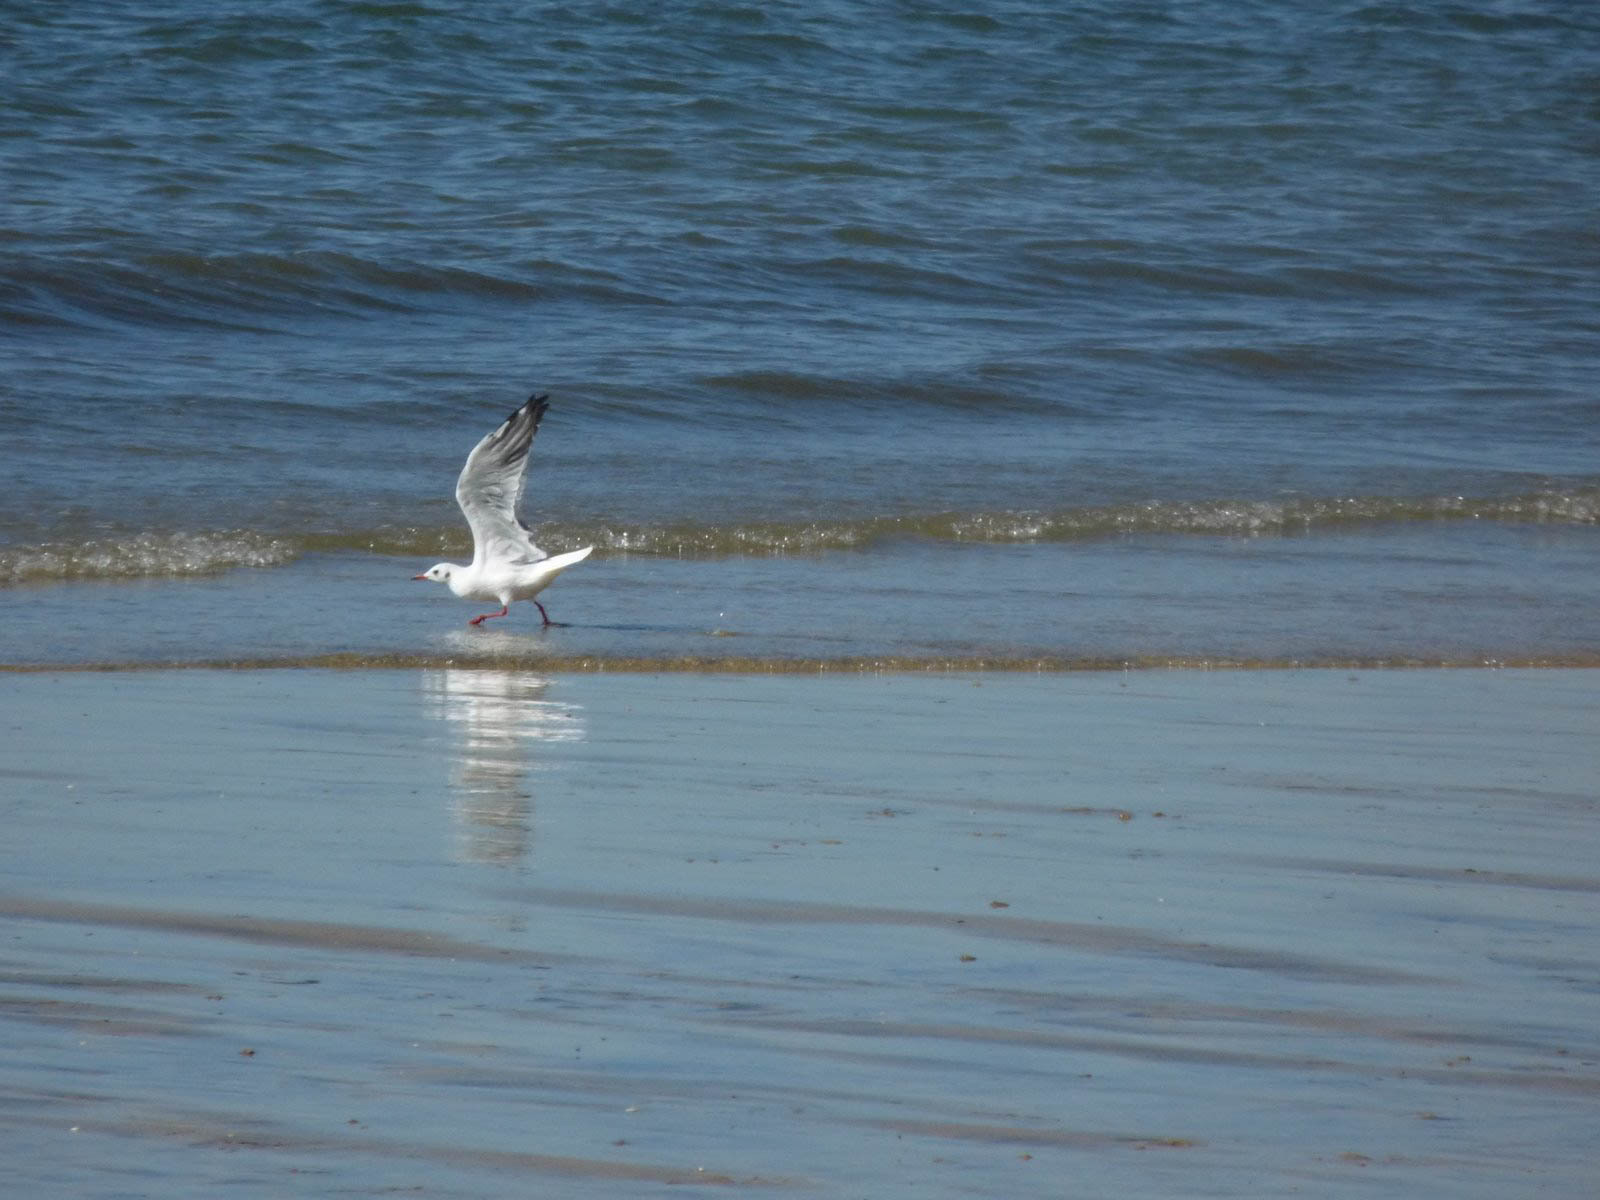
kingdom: Animalia
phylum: Chordata
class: Aves
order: Charadriiformes
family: Laridae
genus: Chroicocephalus
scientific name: Chroicocephalus ridibundus
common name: Black-headed gull
